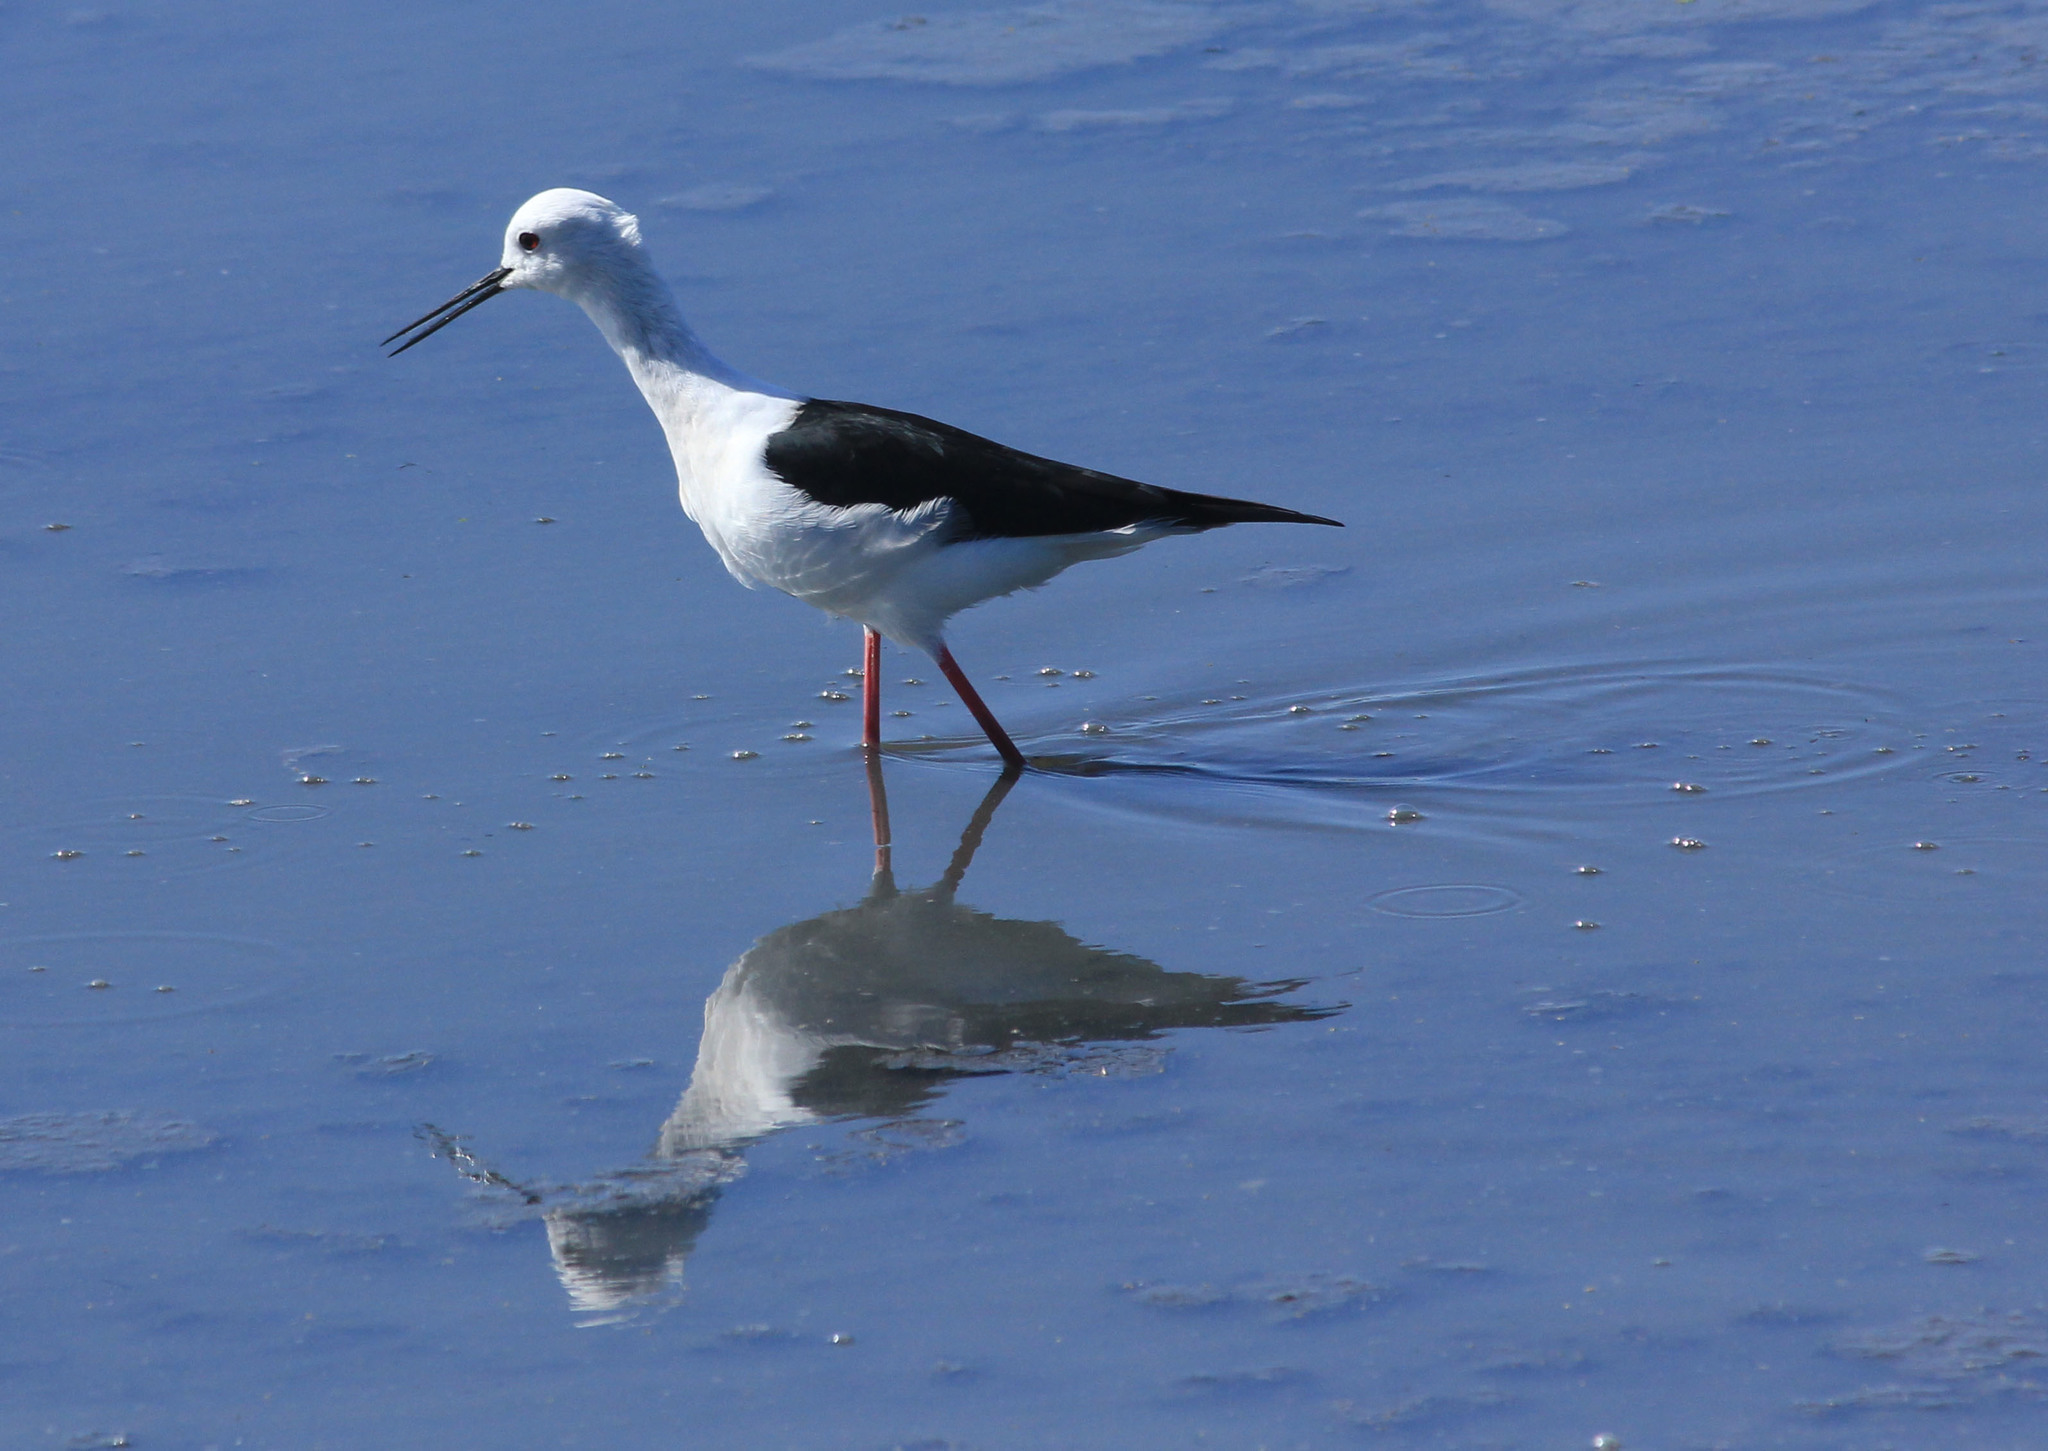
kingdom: Animalia
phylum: Chordata
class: Aves
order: Charadriiformes
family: Recurvirostridae
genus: Himantopus
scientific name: Himantopus himantopus
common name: Black-winged stilt
